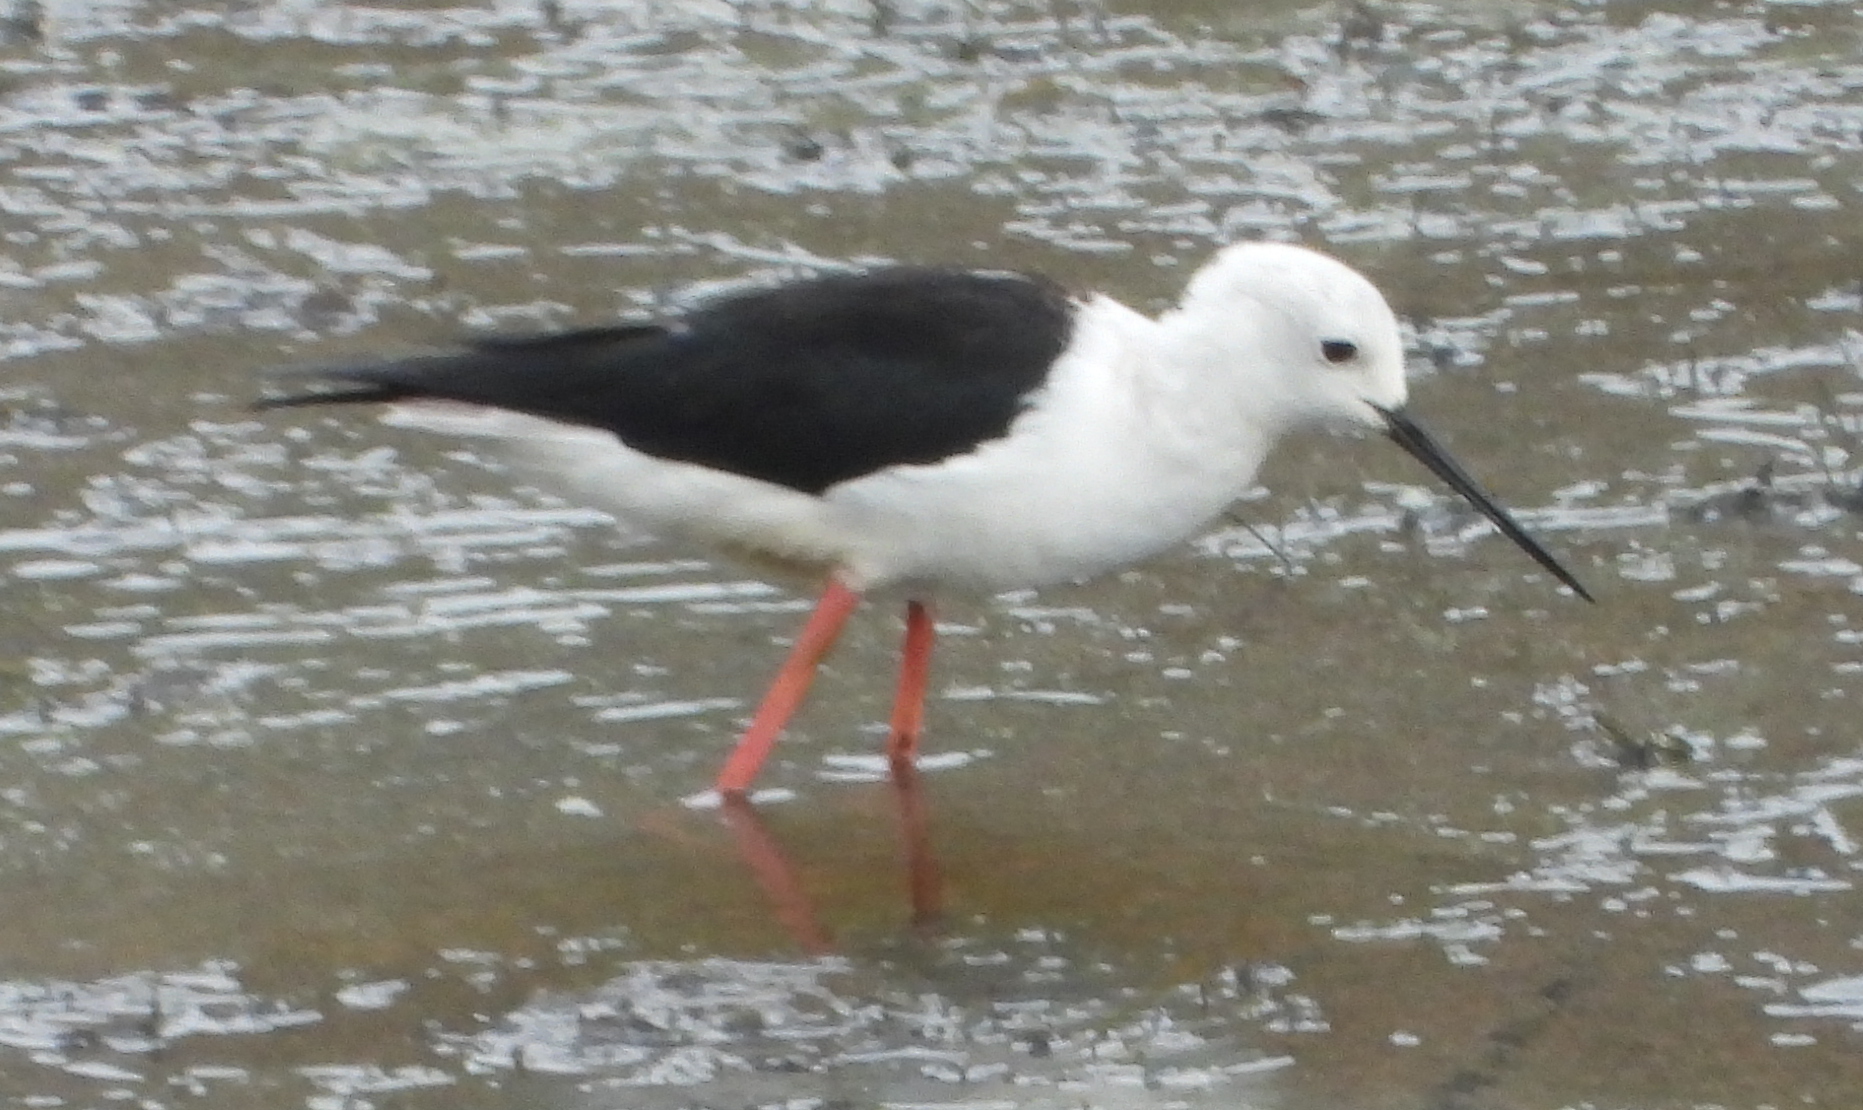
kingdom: Animalia
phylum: Chordata
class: Aves
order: Charadriiformes
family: Recurvirostridae
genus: Himantopus
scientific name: Himantopus himantopus
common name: Black-winged stilt
